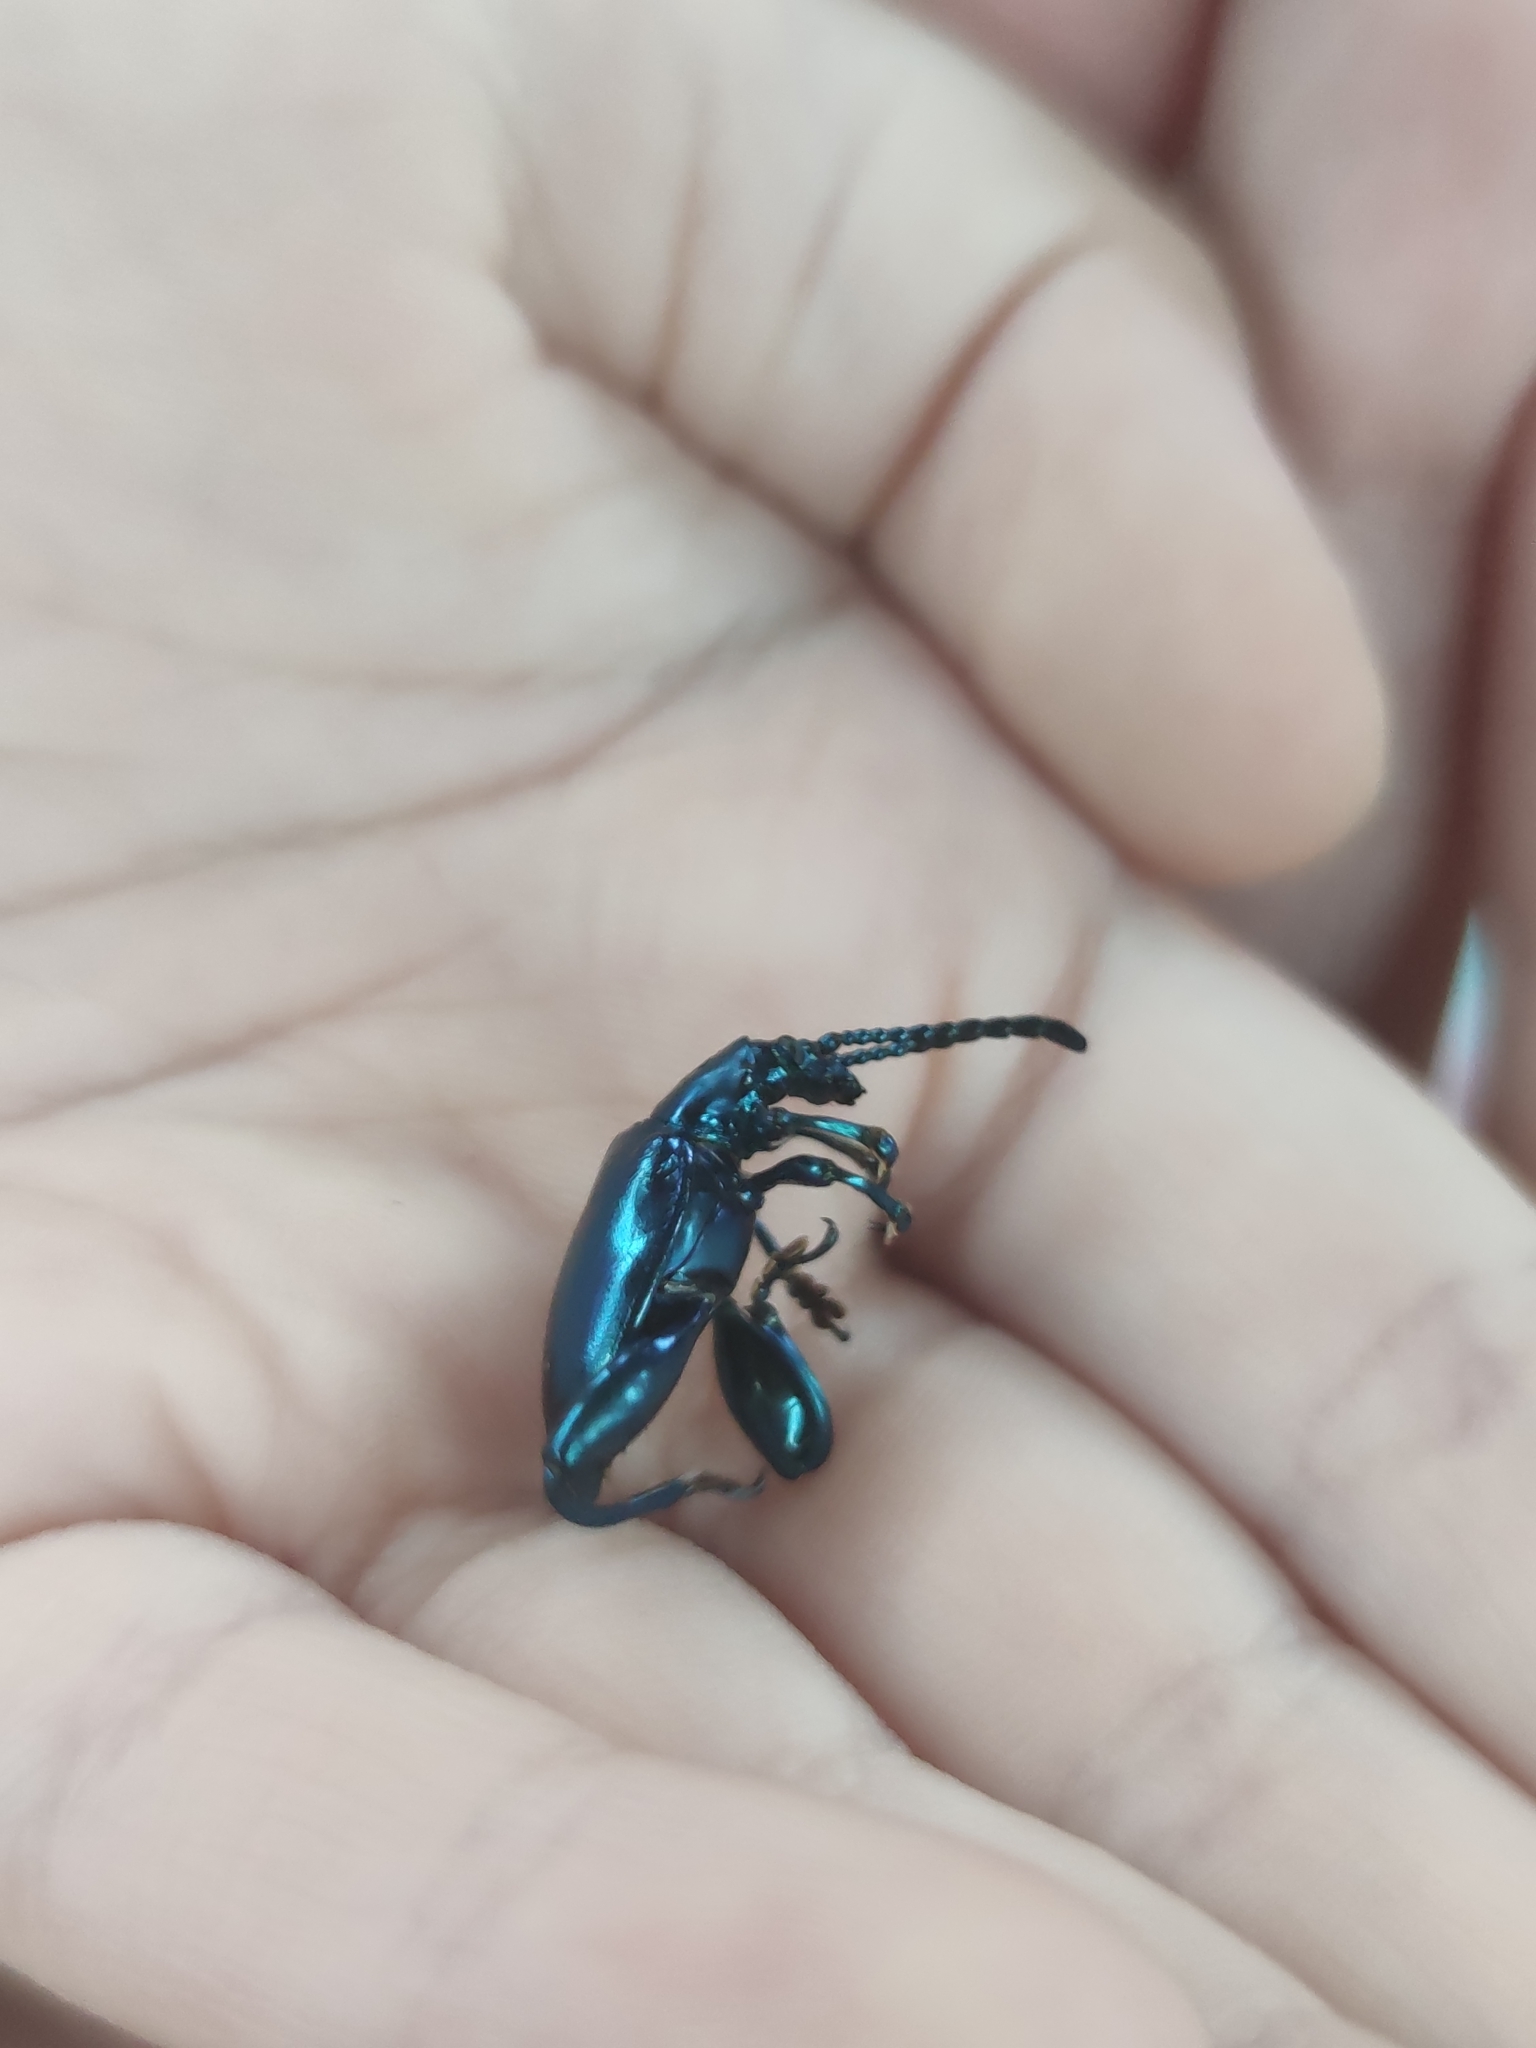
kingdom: Animalia
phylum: Arthropoda
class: Insecta
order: Coleoptera
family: Chrysomelidae
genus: Sagra
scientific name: Sagra femorata
